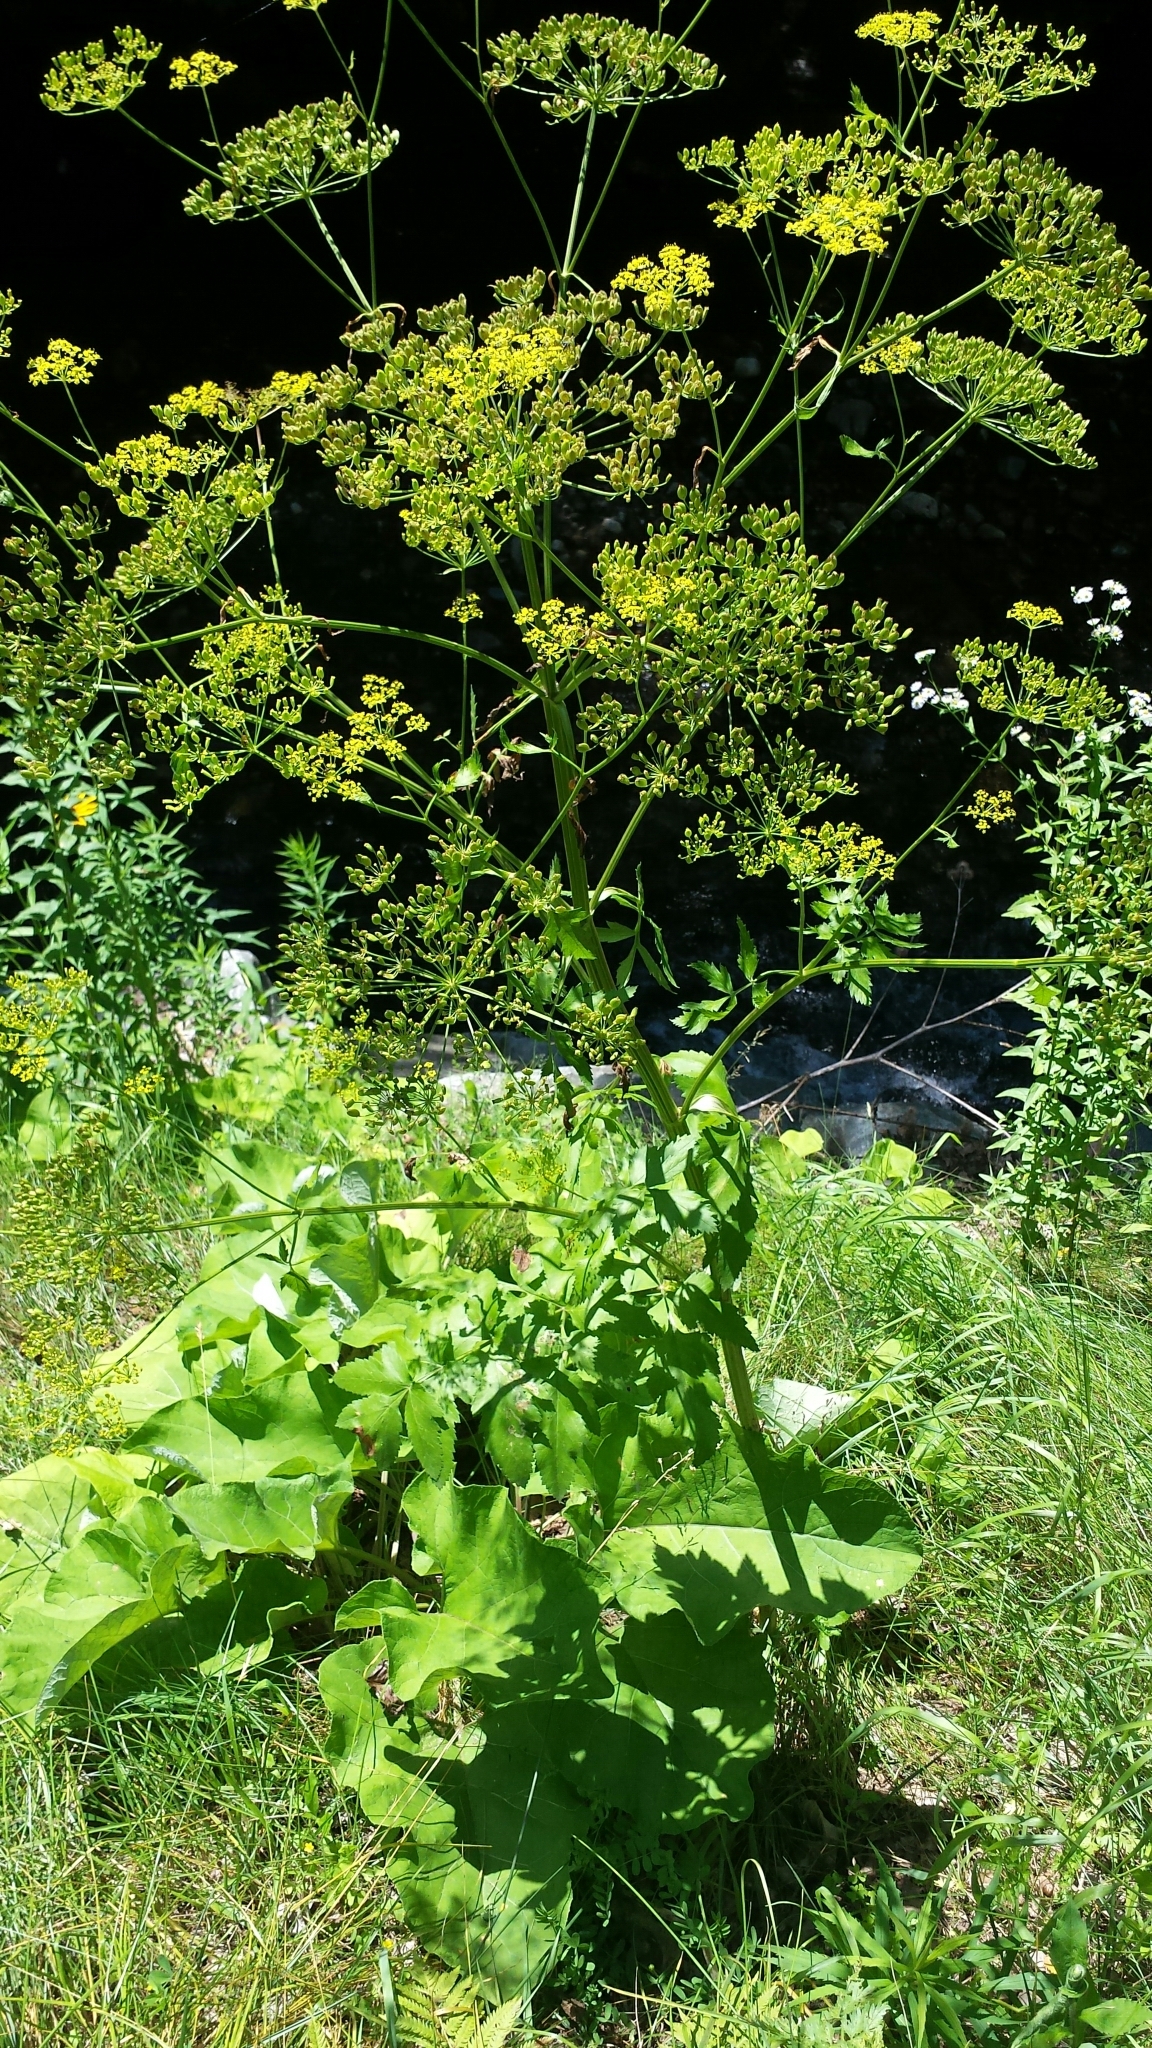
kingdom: Plantae
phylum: Tracheophyta
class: Magnoliopsida
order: Apiales
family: Apiaceae
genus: Pastinaca
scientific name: Pastinaca sativa
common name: Wild parsnip
